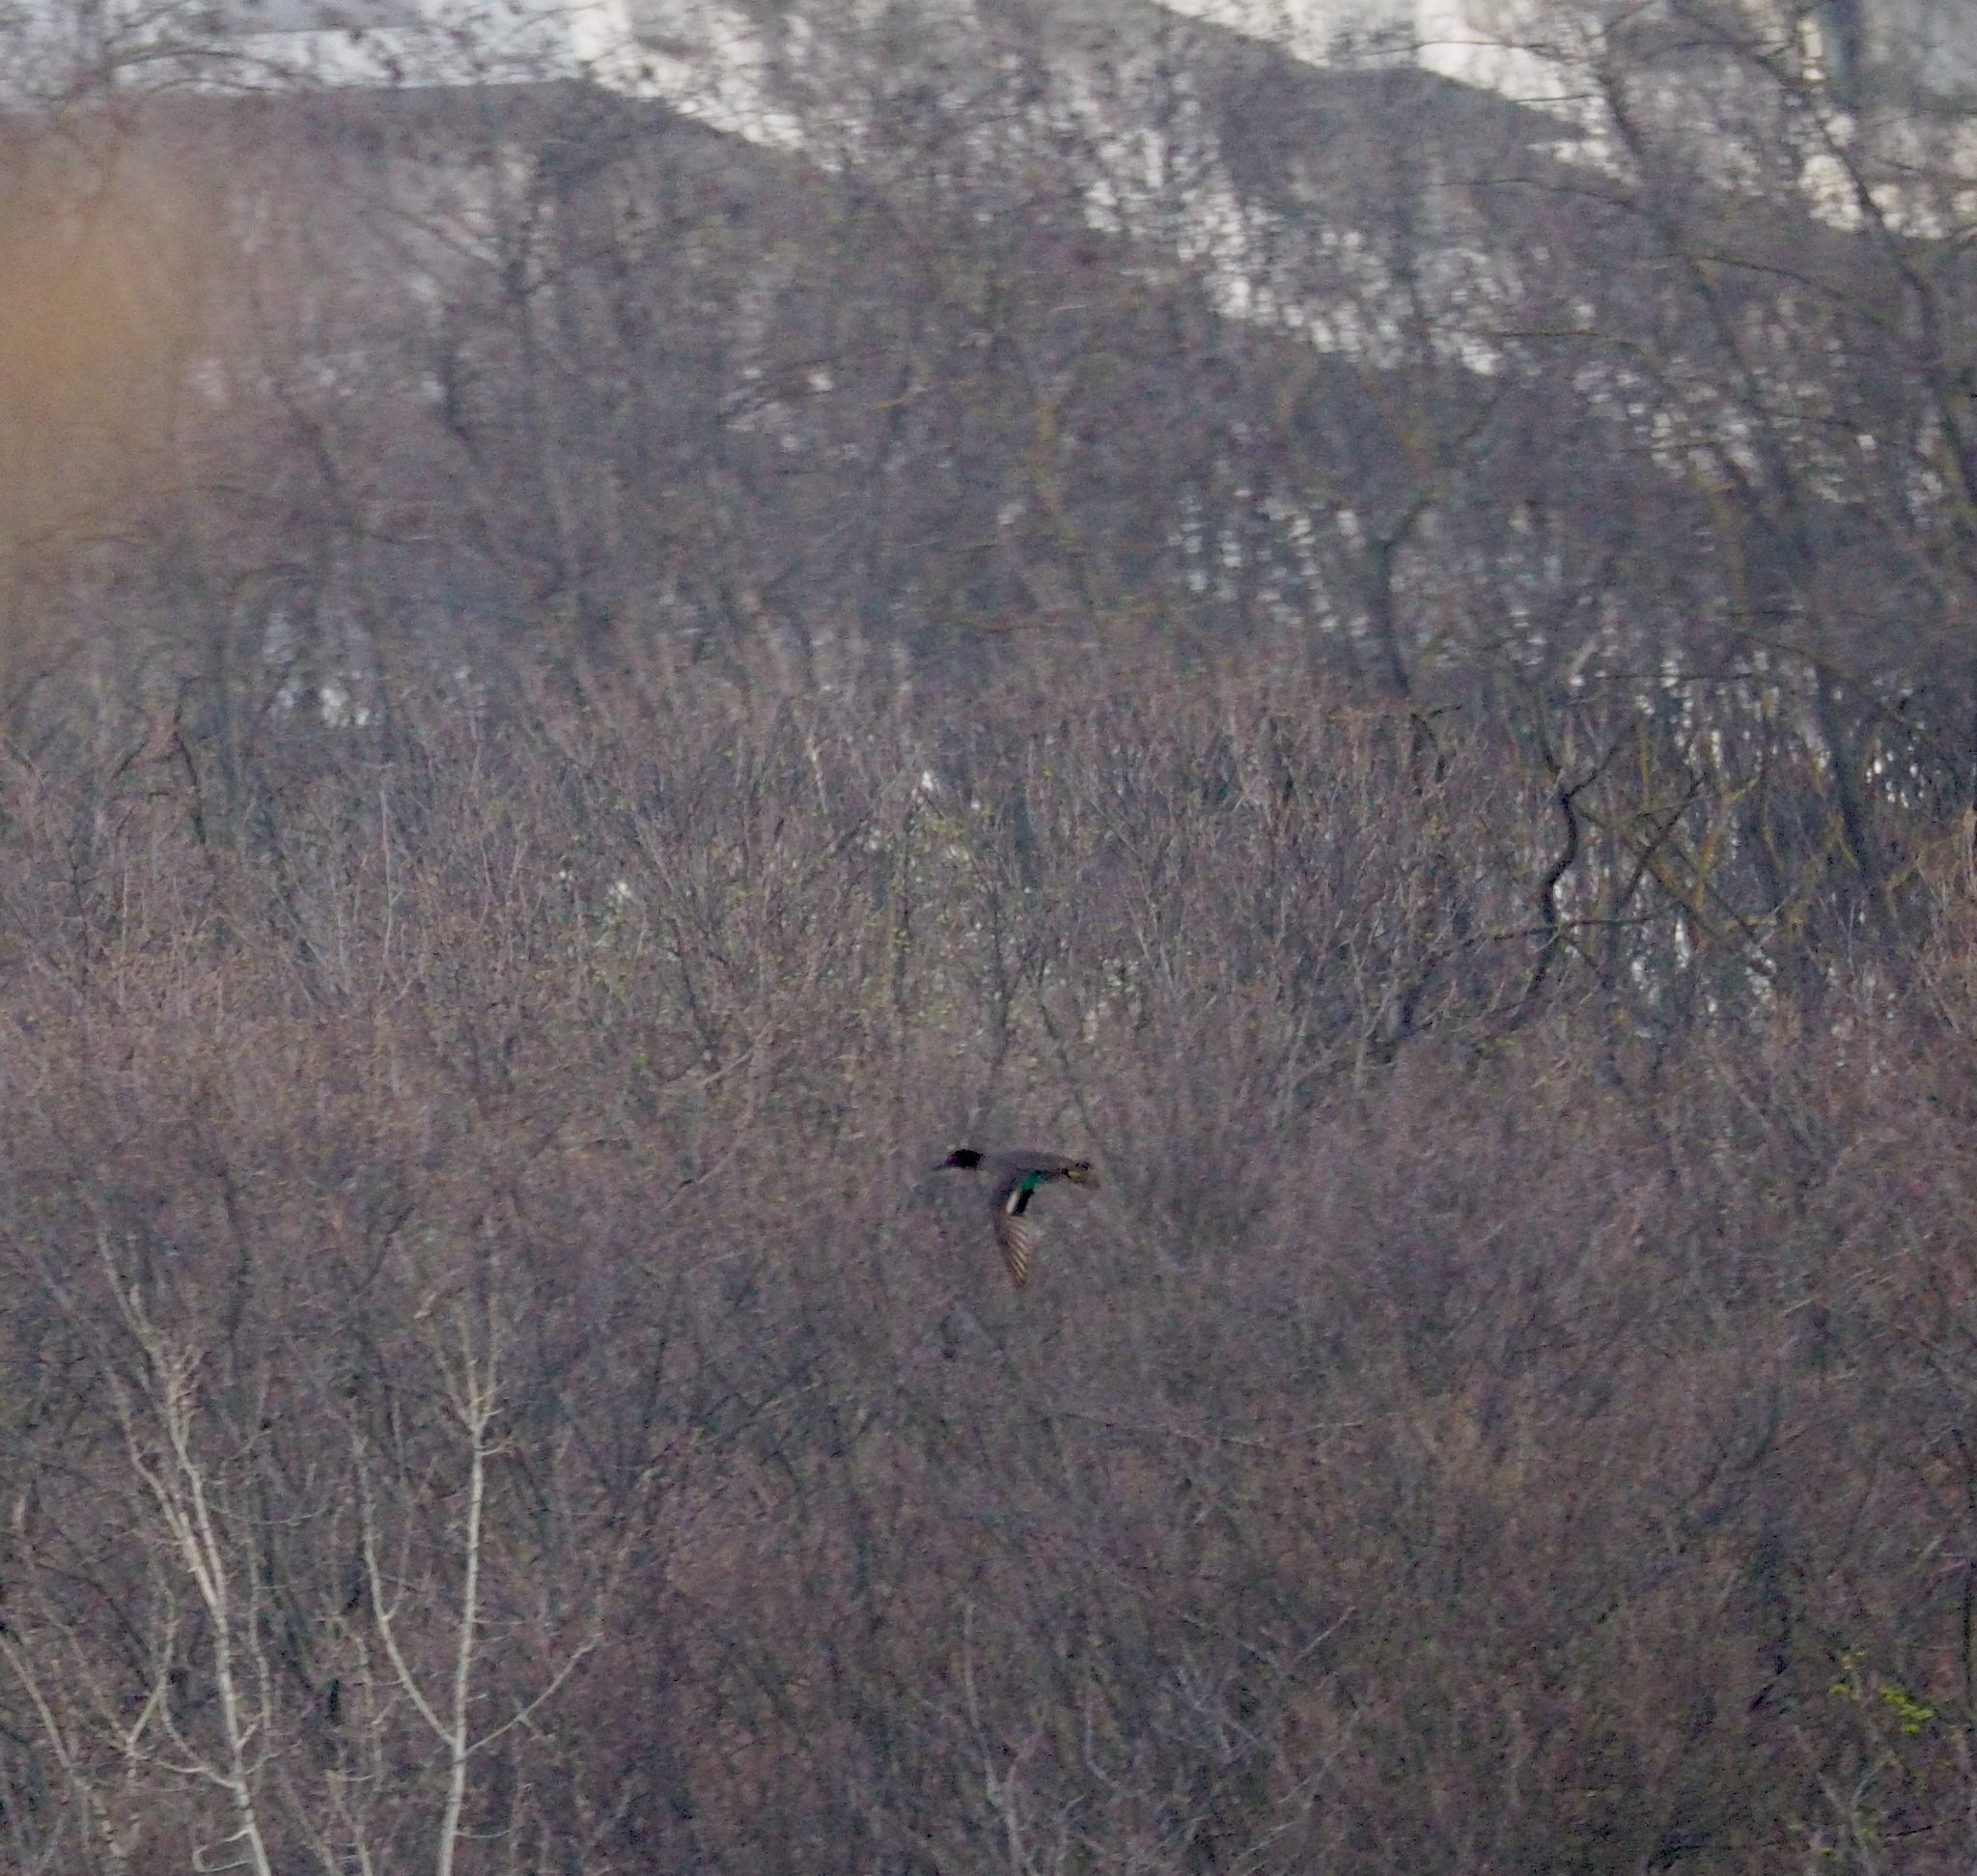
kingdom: Animalia
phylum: Chordata
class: Aves
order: Anseriformes
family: Anatidae
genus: Anas
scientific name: Anas crecca
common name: Eurasian teal
